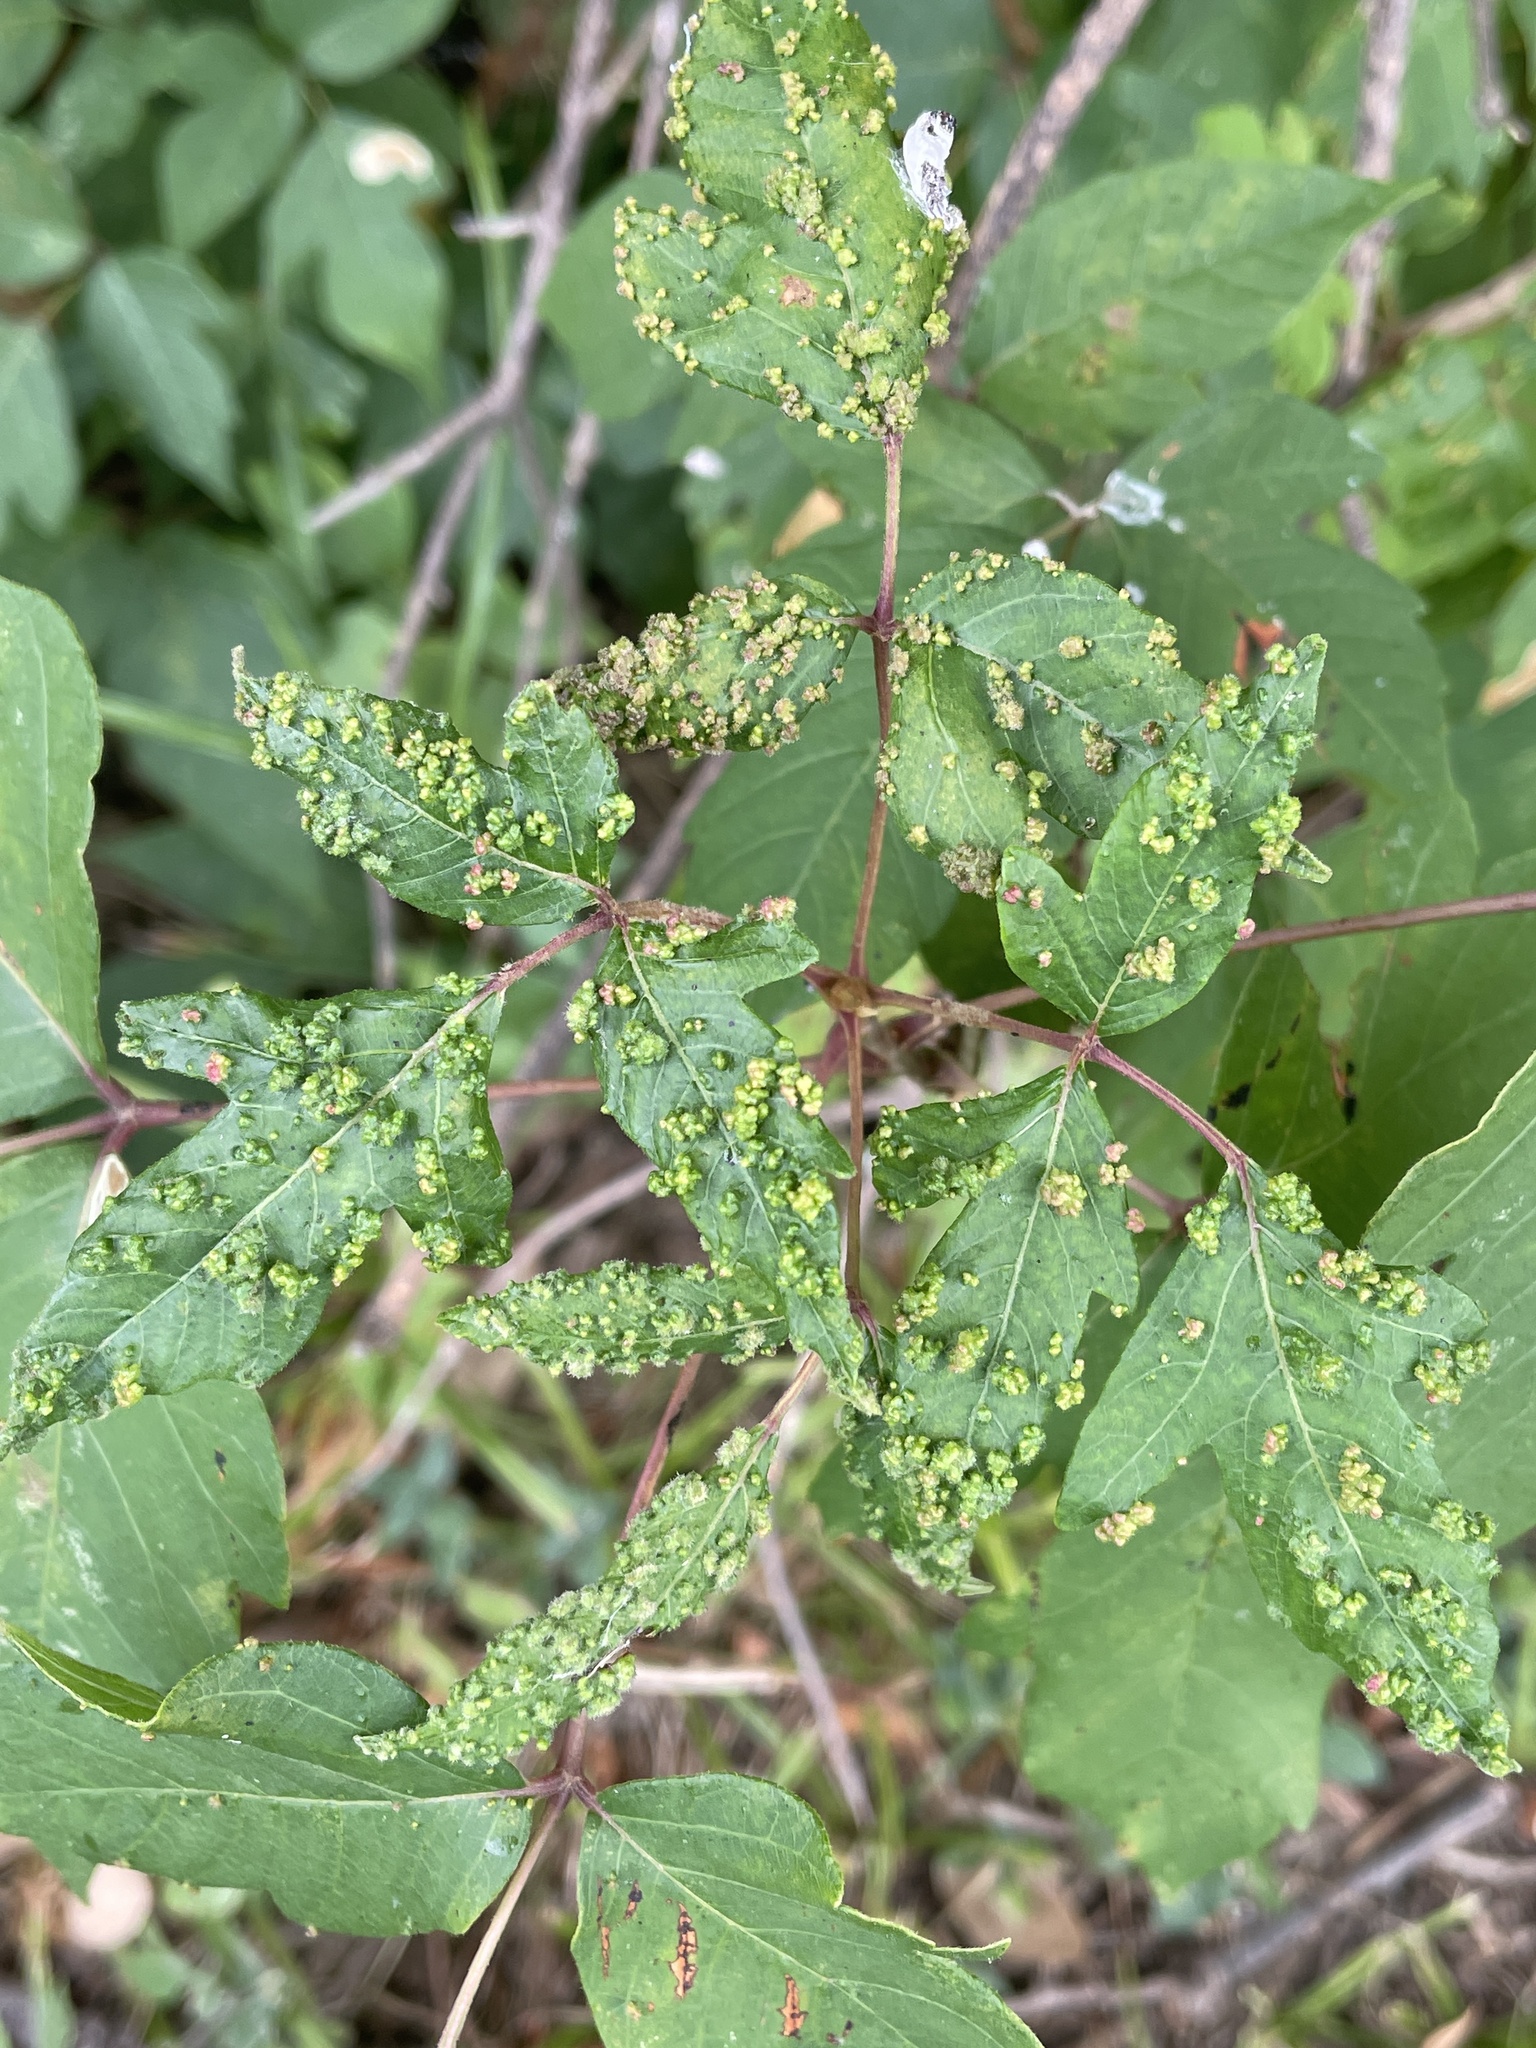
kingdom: Animalia
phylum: Arthropoda
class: Arachnida
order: Trombidiformes
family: Eriophyidae
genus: Aculops
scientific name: Aculops
